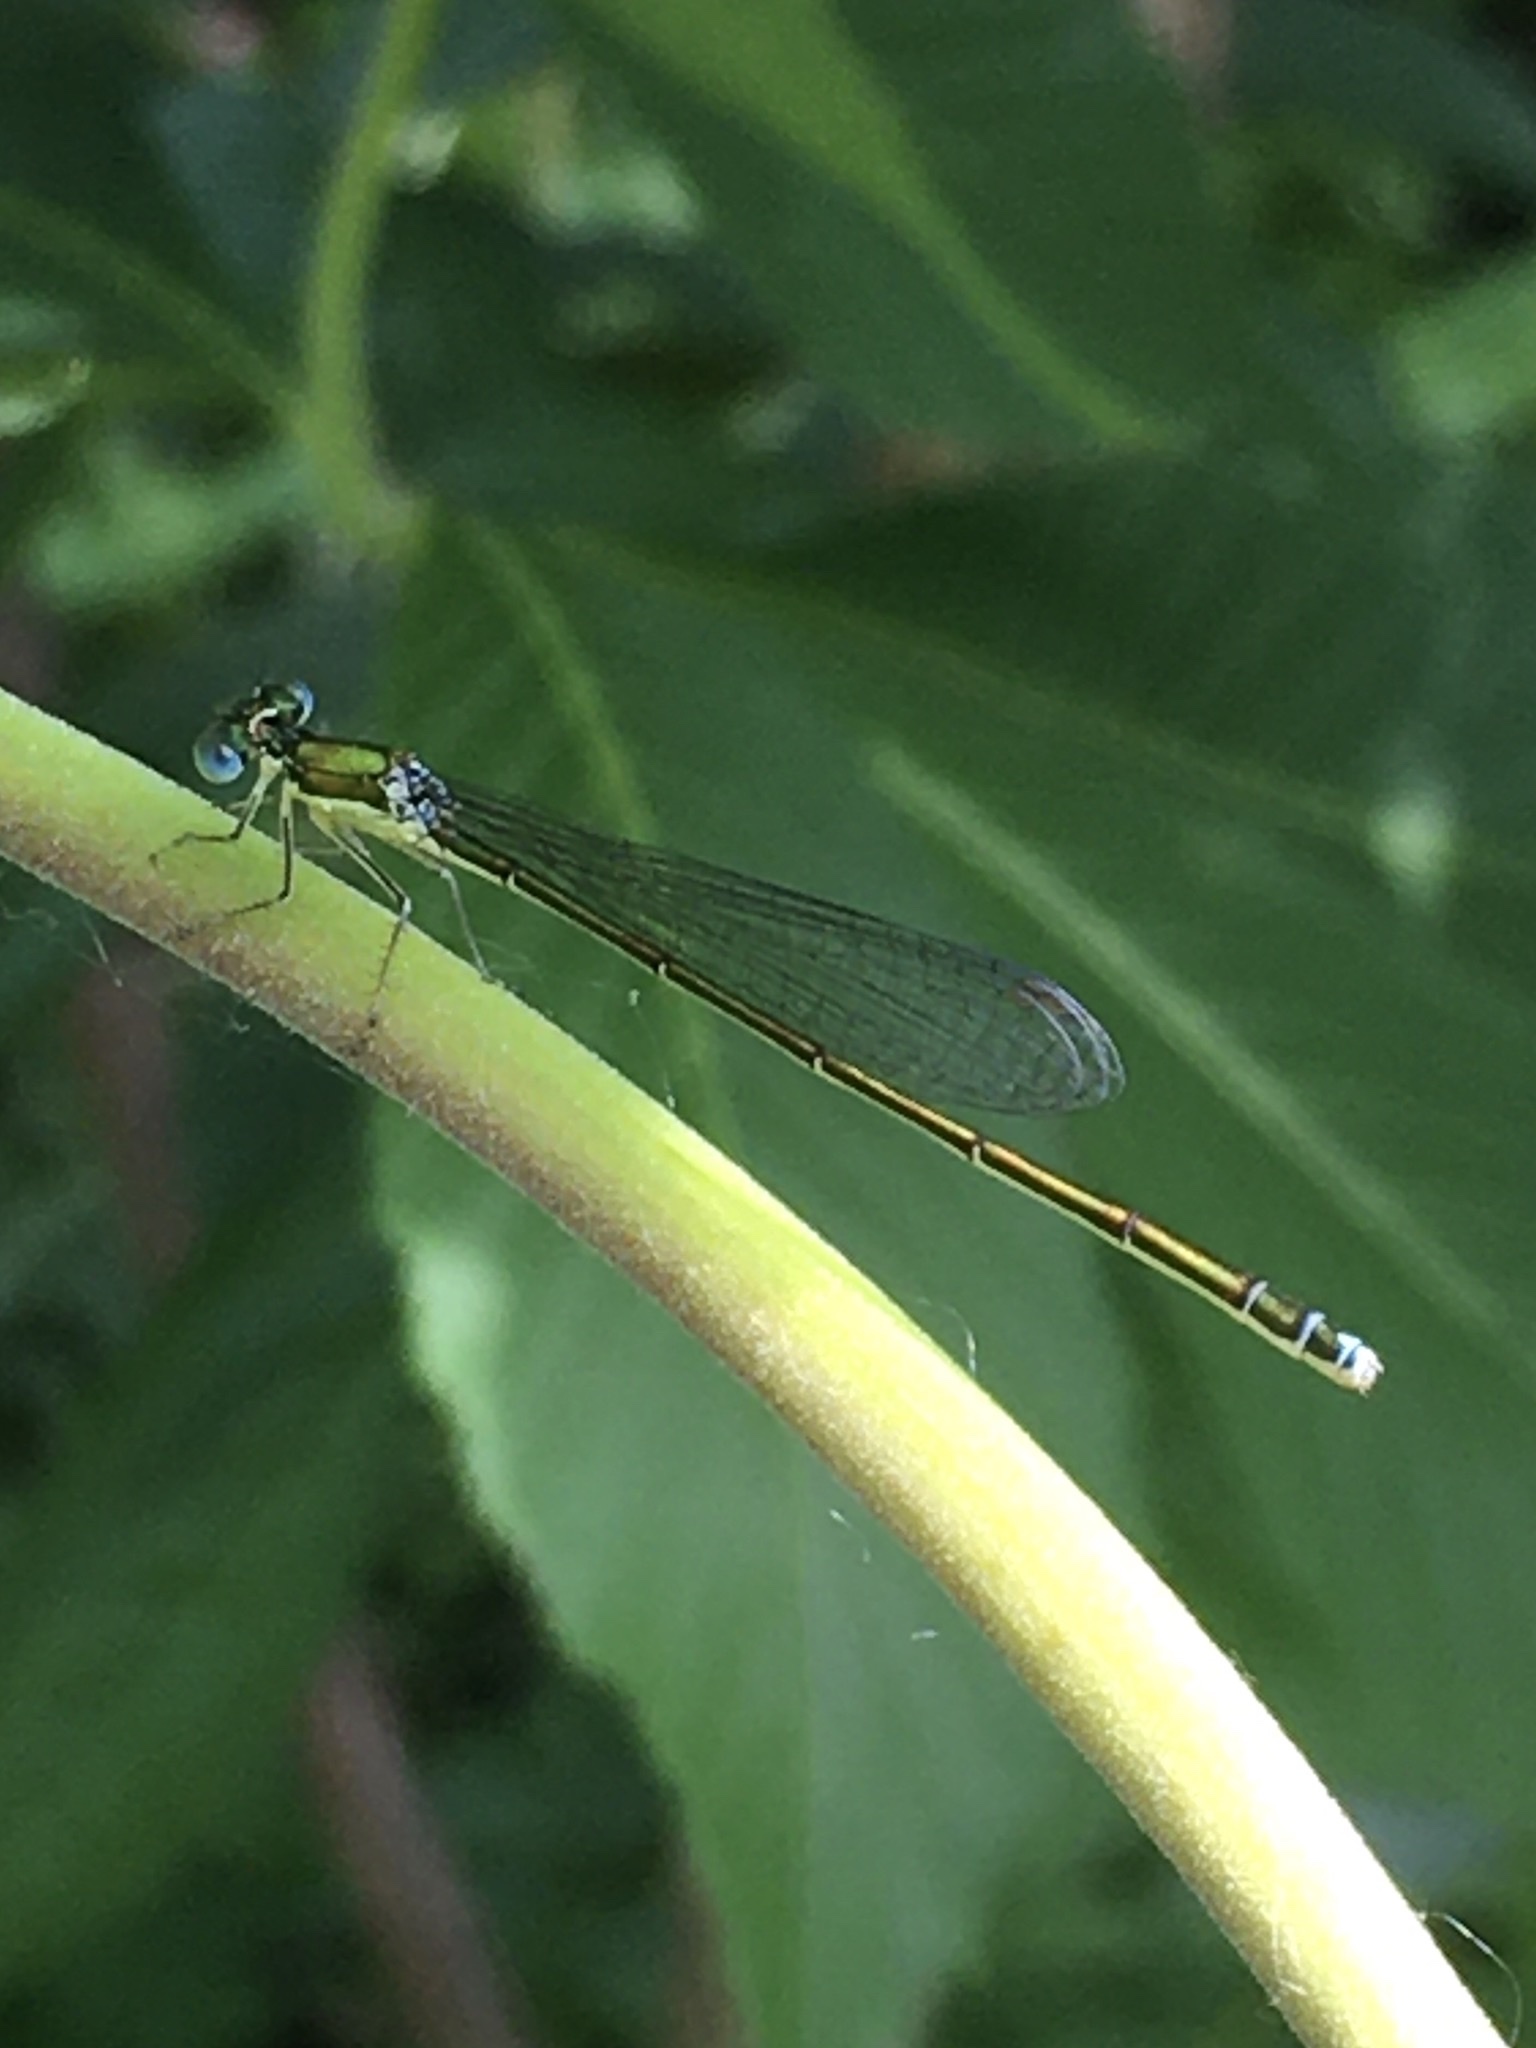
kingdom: Animalia
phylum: Arthropoda
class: Insecta
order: Odonata
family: Coenagrionidae
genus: Nehalennia
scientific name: Nehalennia irene
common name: Sedge sprite
